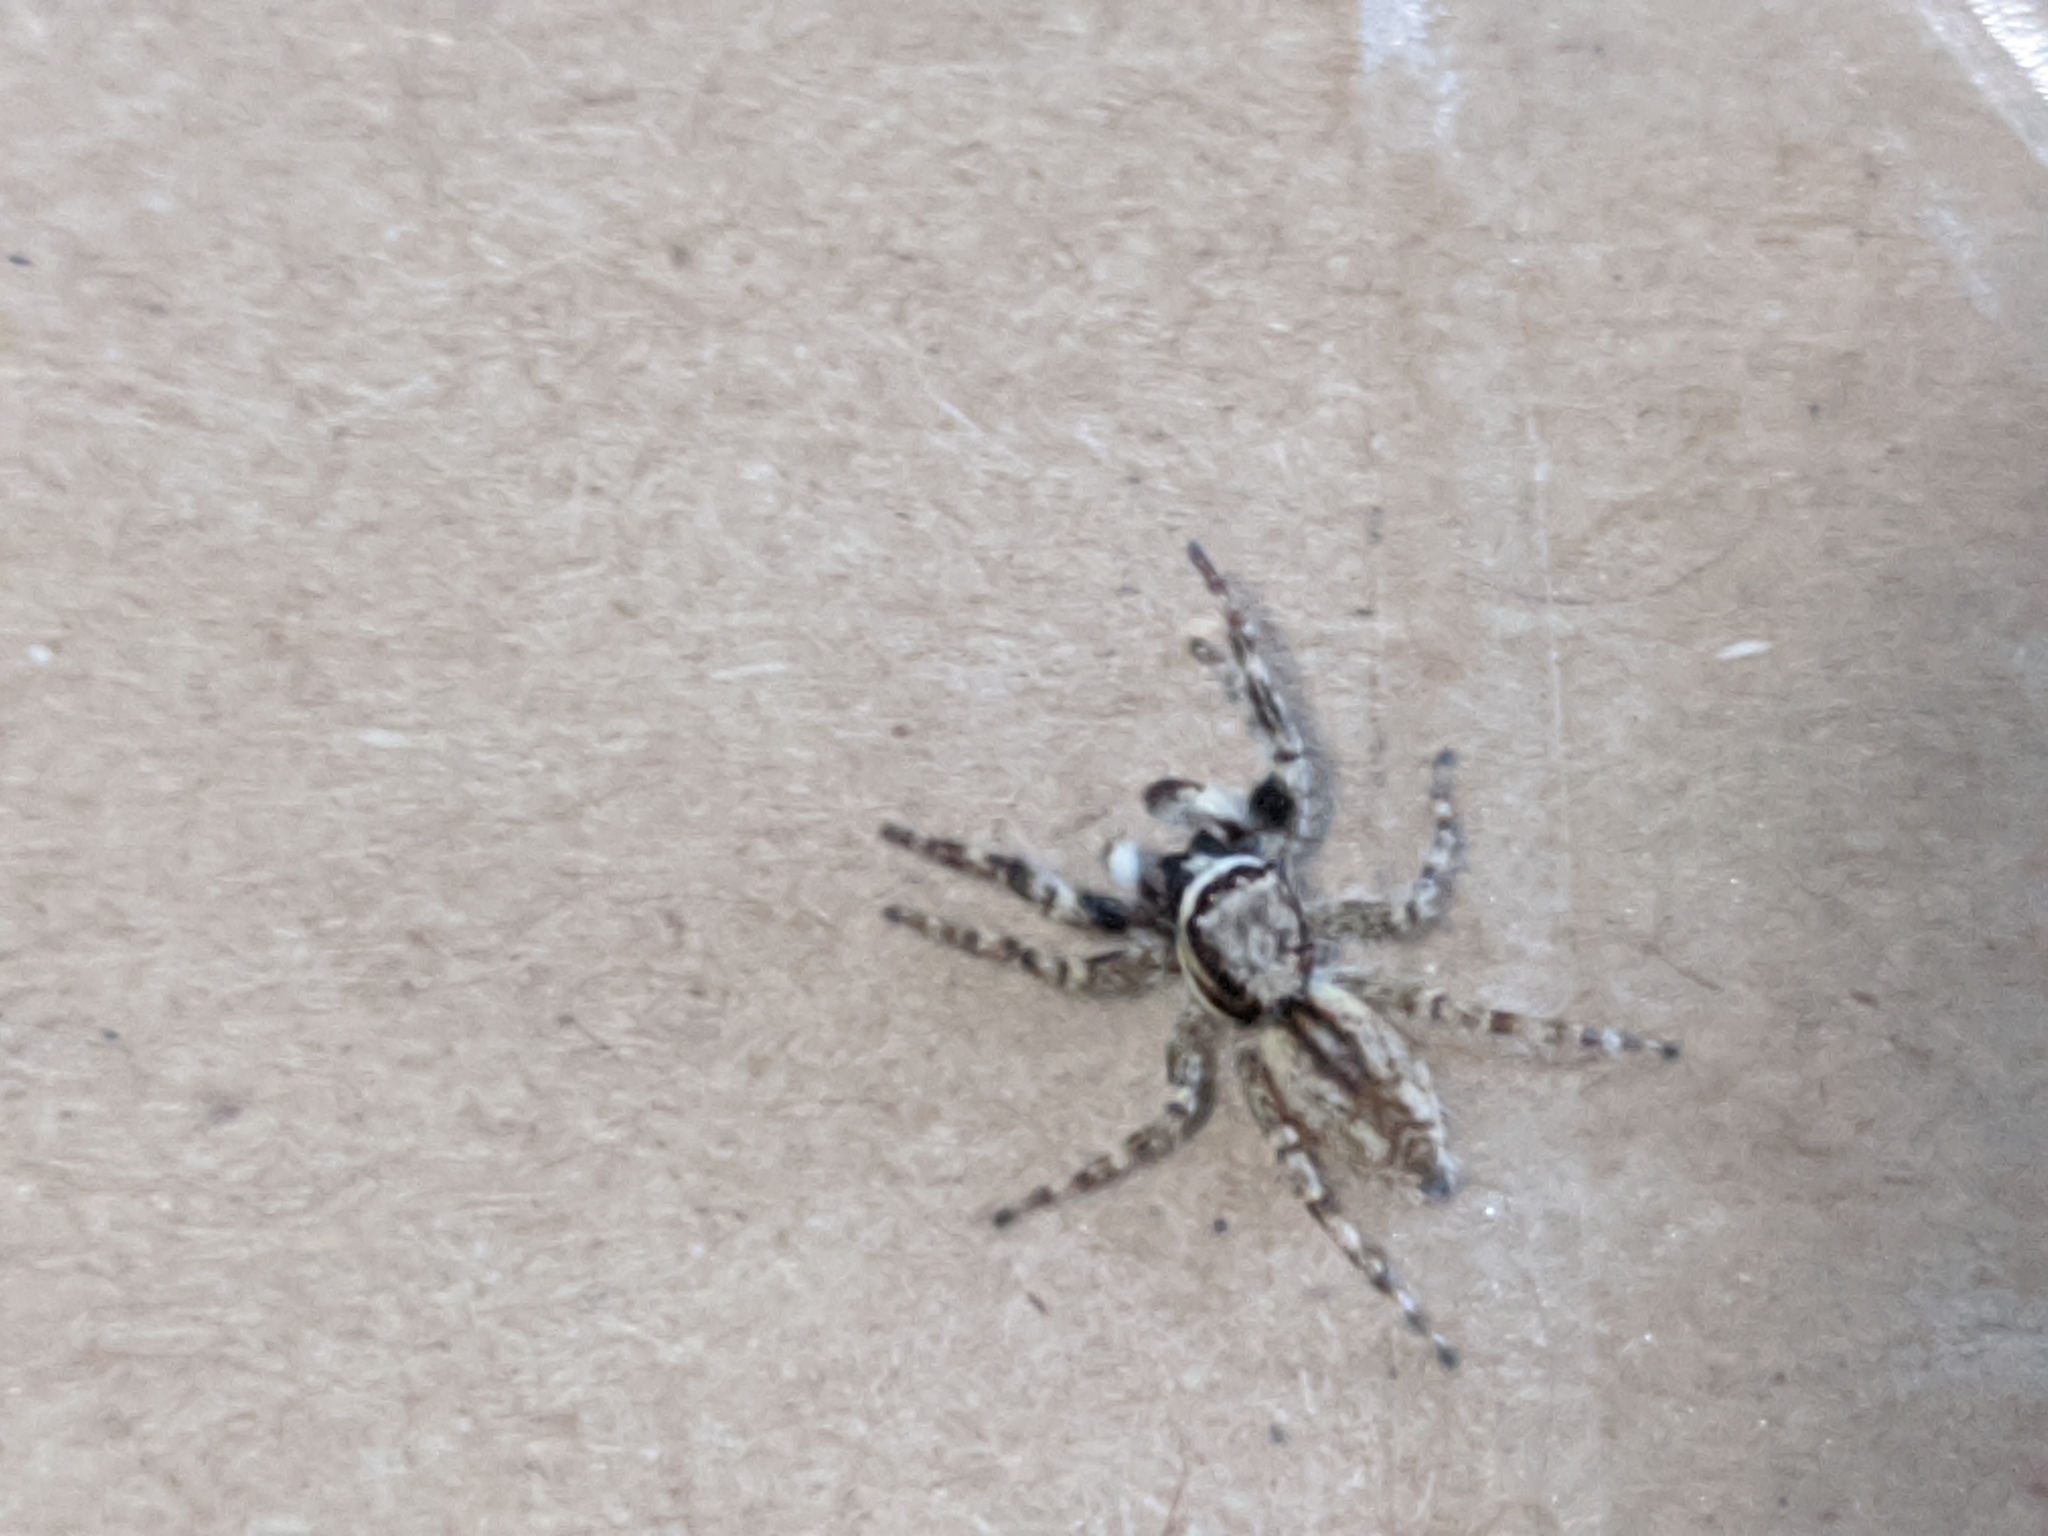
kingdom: Animalia
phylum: Arthropoda
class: Arachnida
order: Araneae
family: Salticidae
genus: Menemerus
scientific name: Menemerus bivittatus
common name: Gray wall jumper
